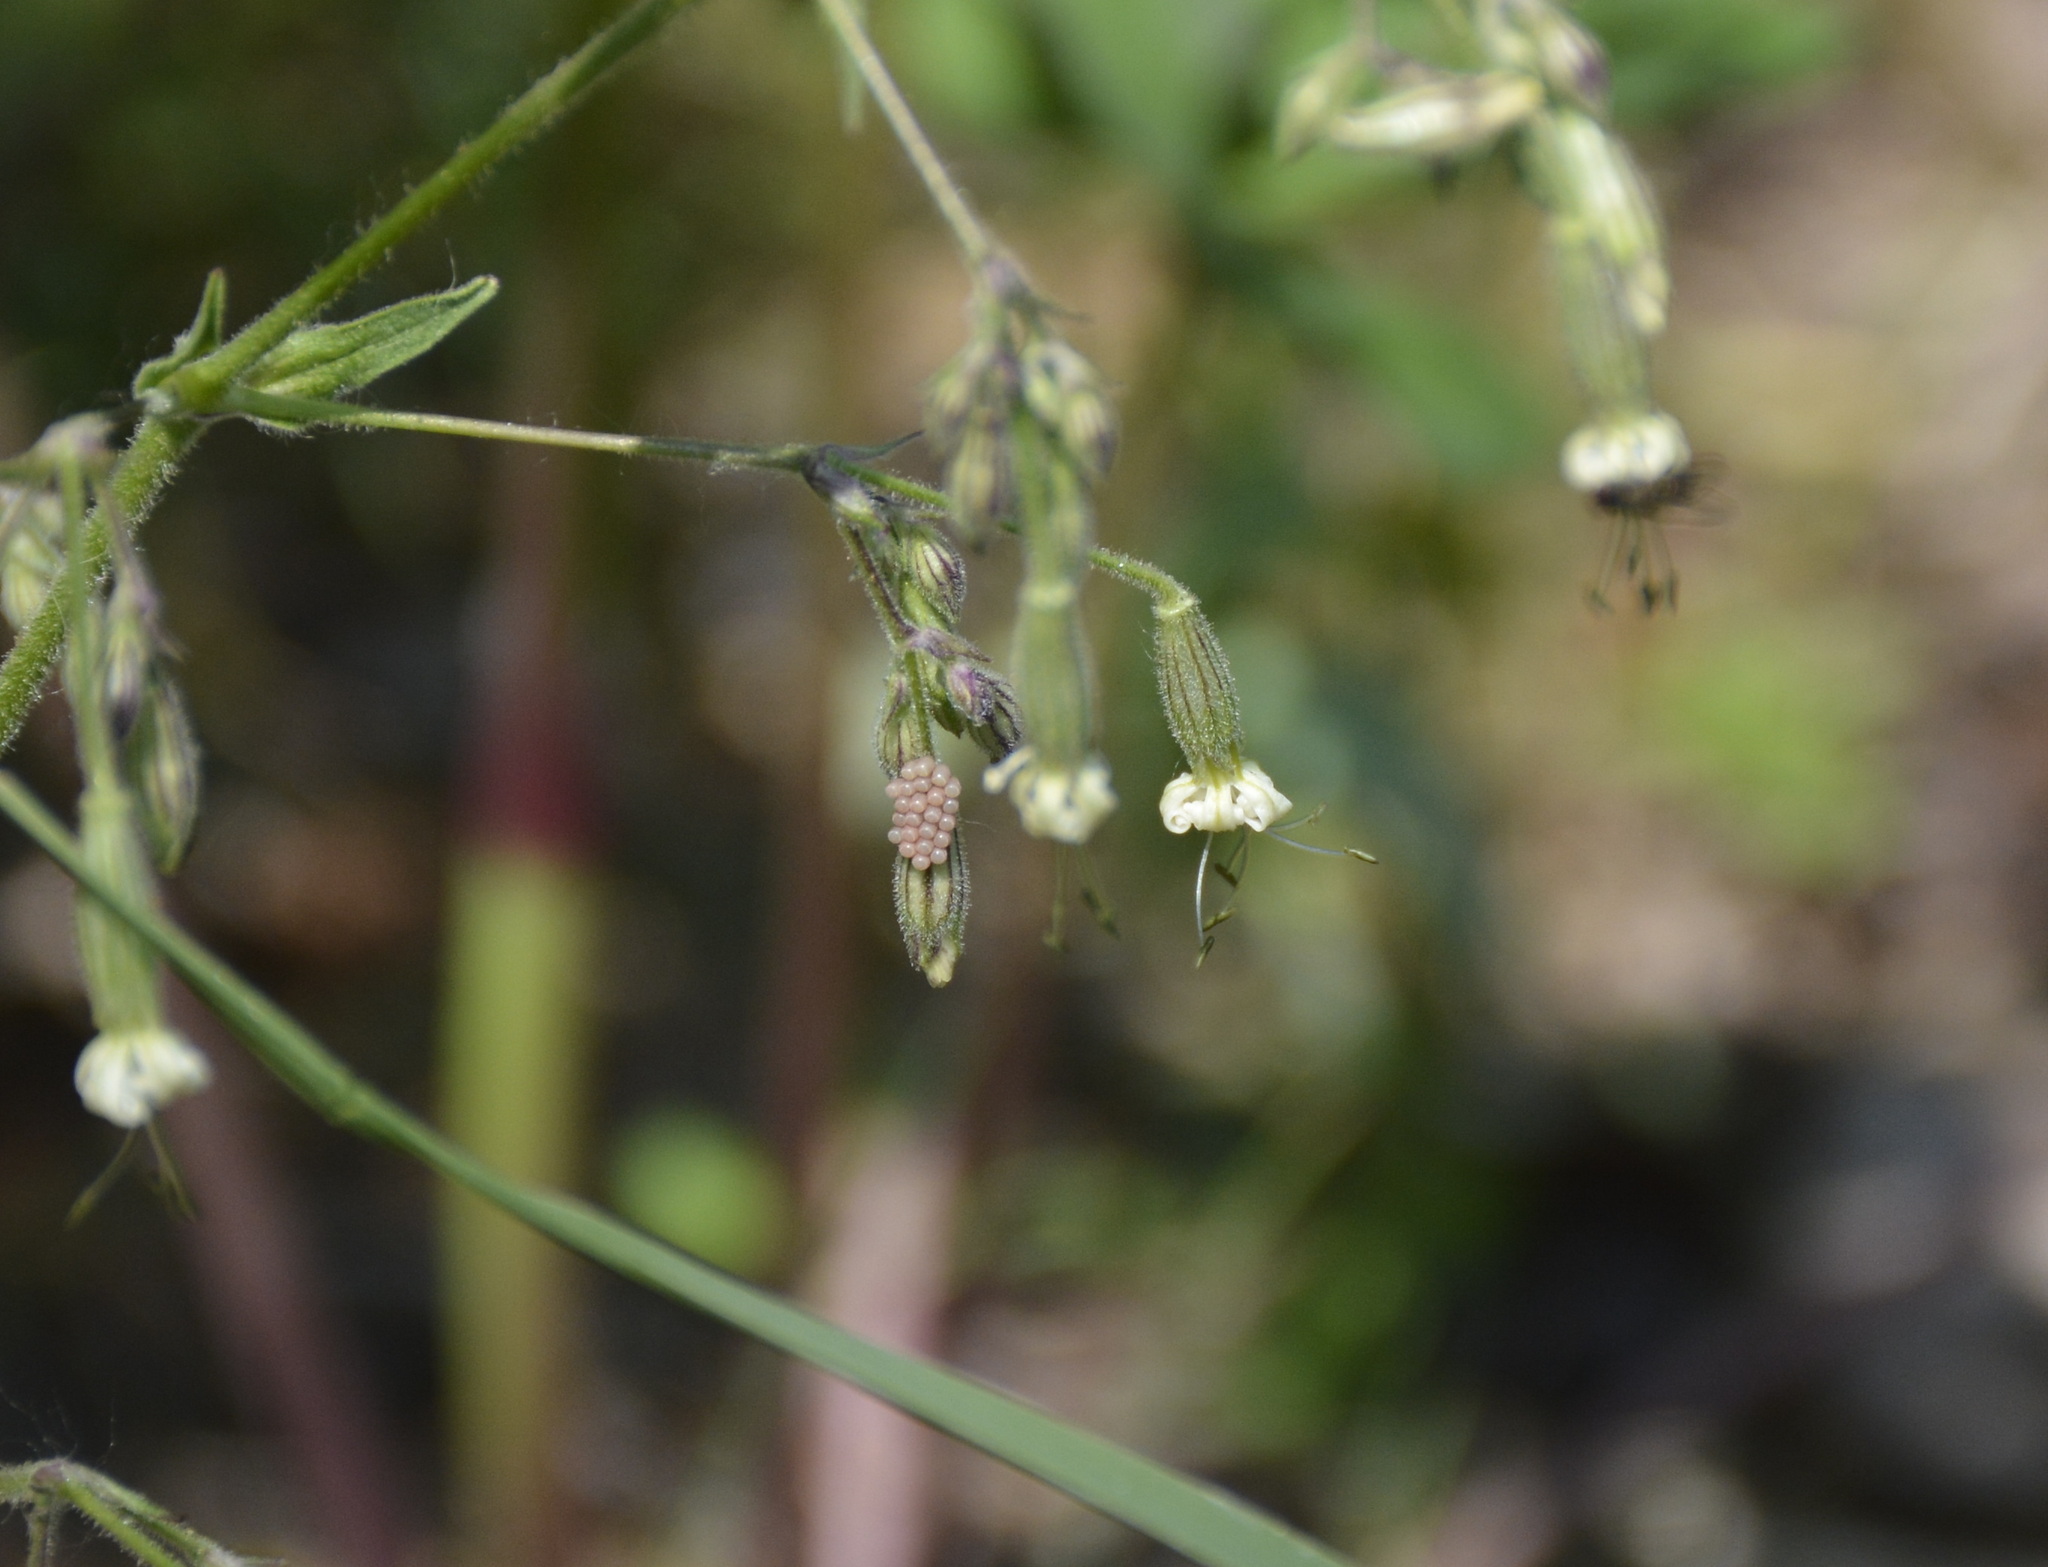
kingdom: Plantae
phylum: Tracheophyta
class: Magnoliopsida
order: Caryophyllales
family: Caryophyllaceae
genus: Silene
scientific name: Silene nutans
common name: Nottingham catchfly
